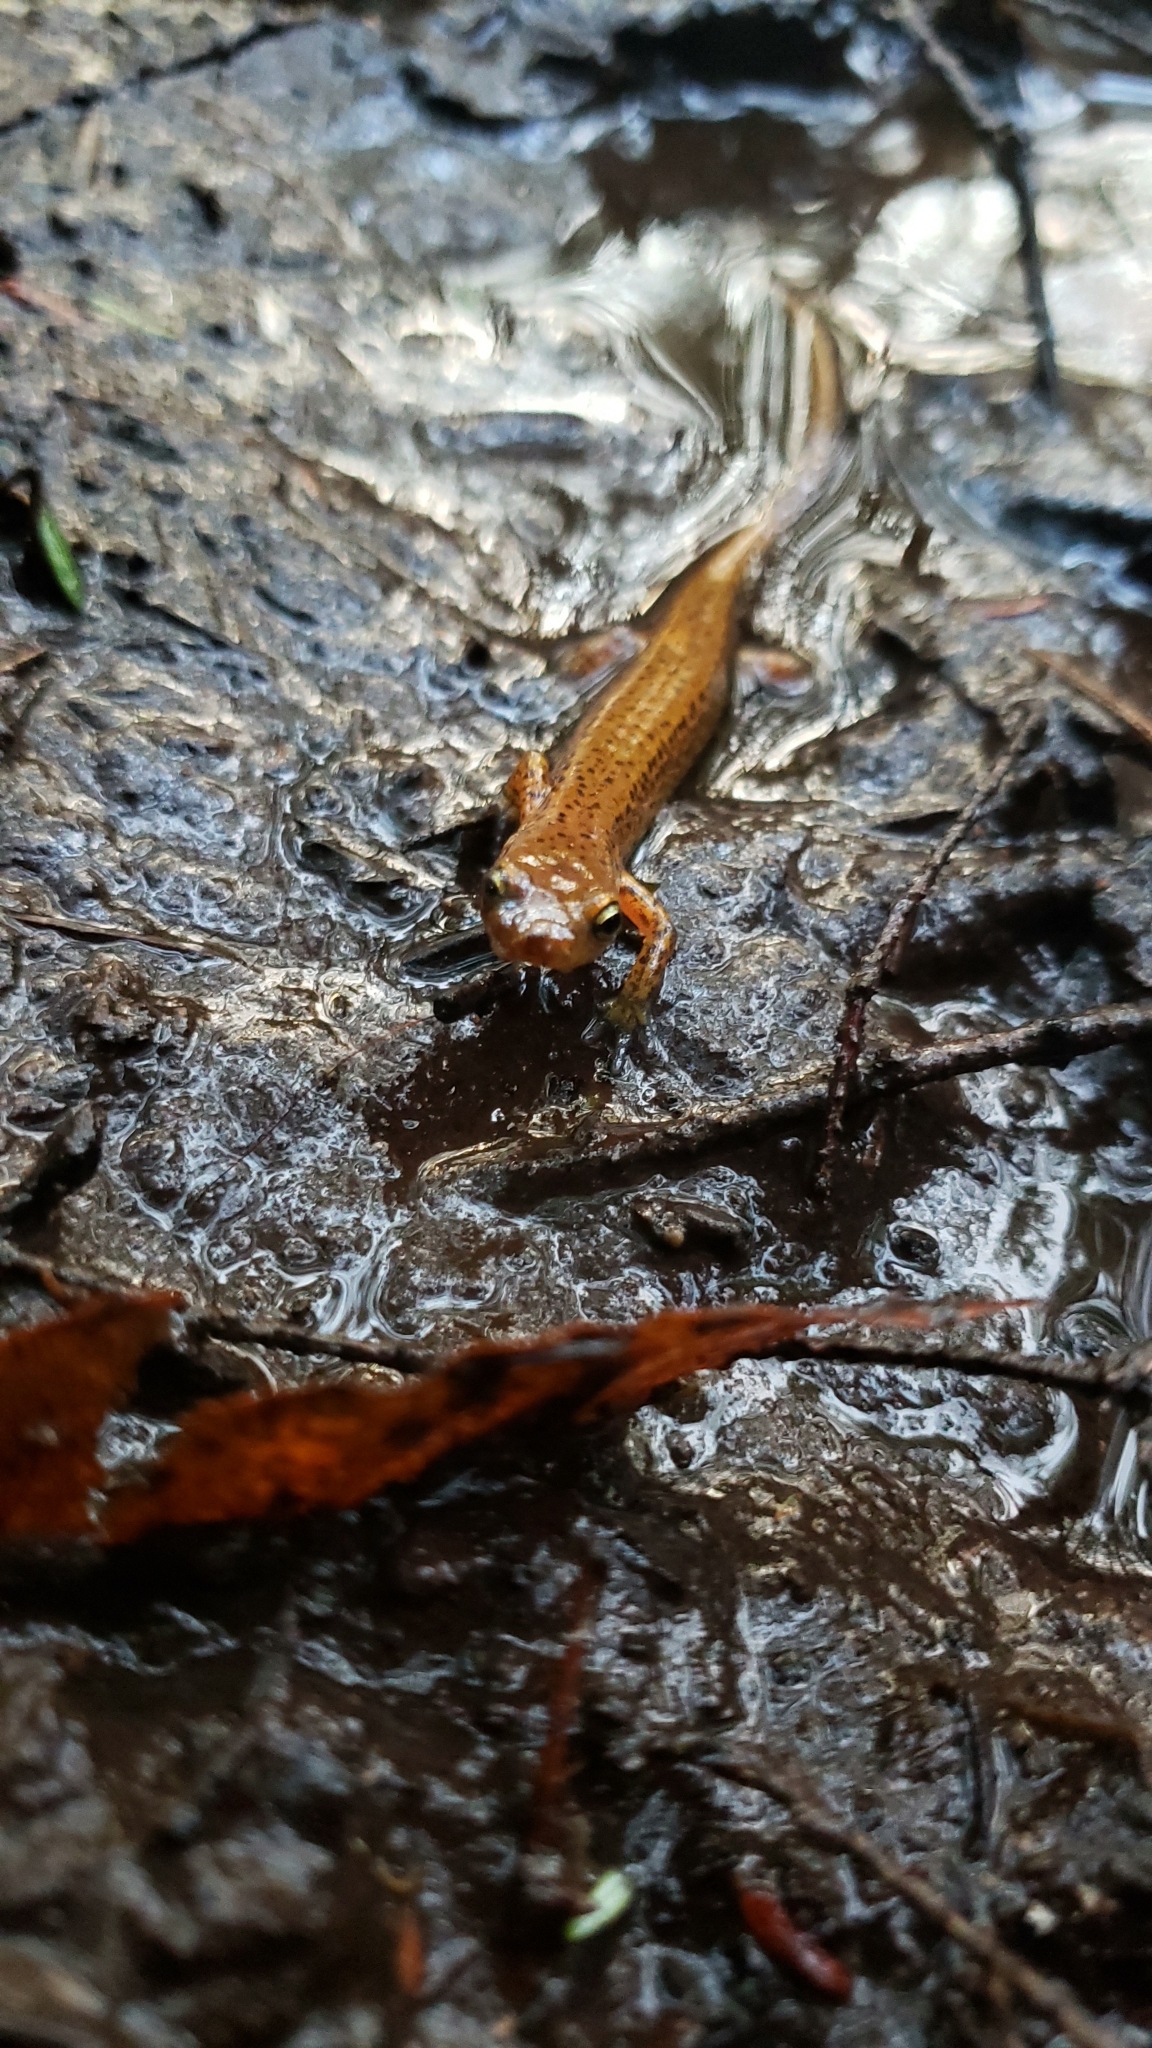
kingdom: Animalia
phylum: Chordata
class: Amphibia
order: Caudata
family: Plethodontidae
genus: Eurycea
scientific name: Eurycea longicauda
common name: Long-tailed salamander
